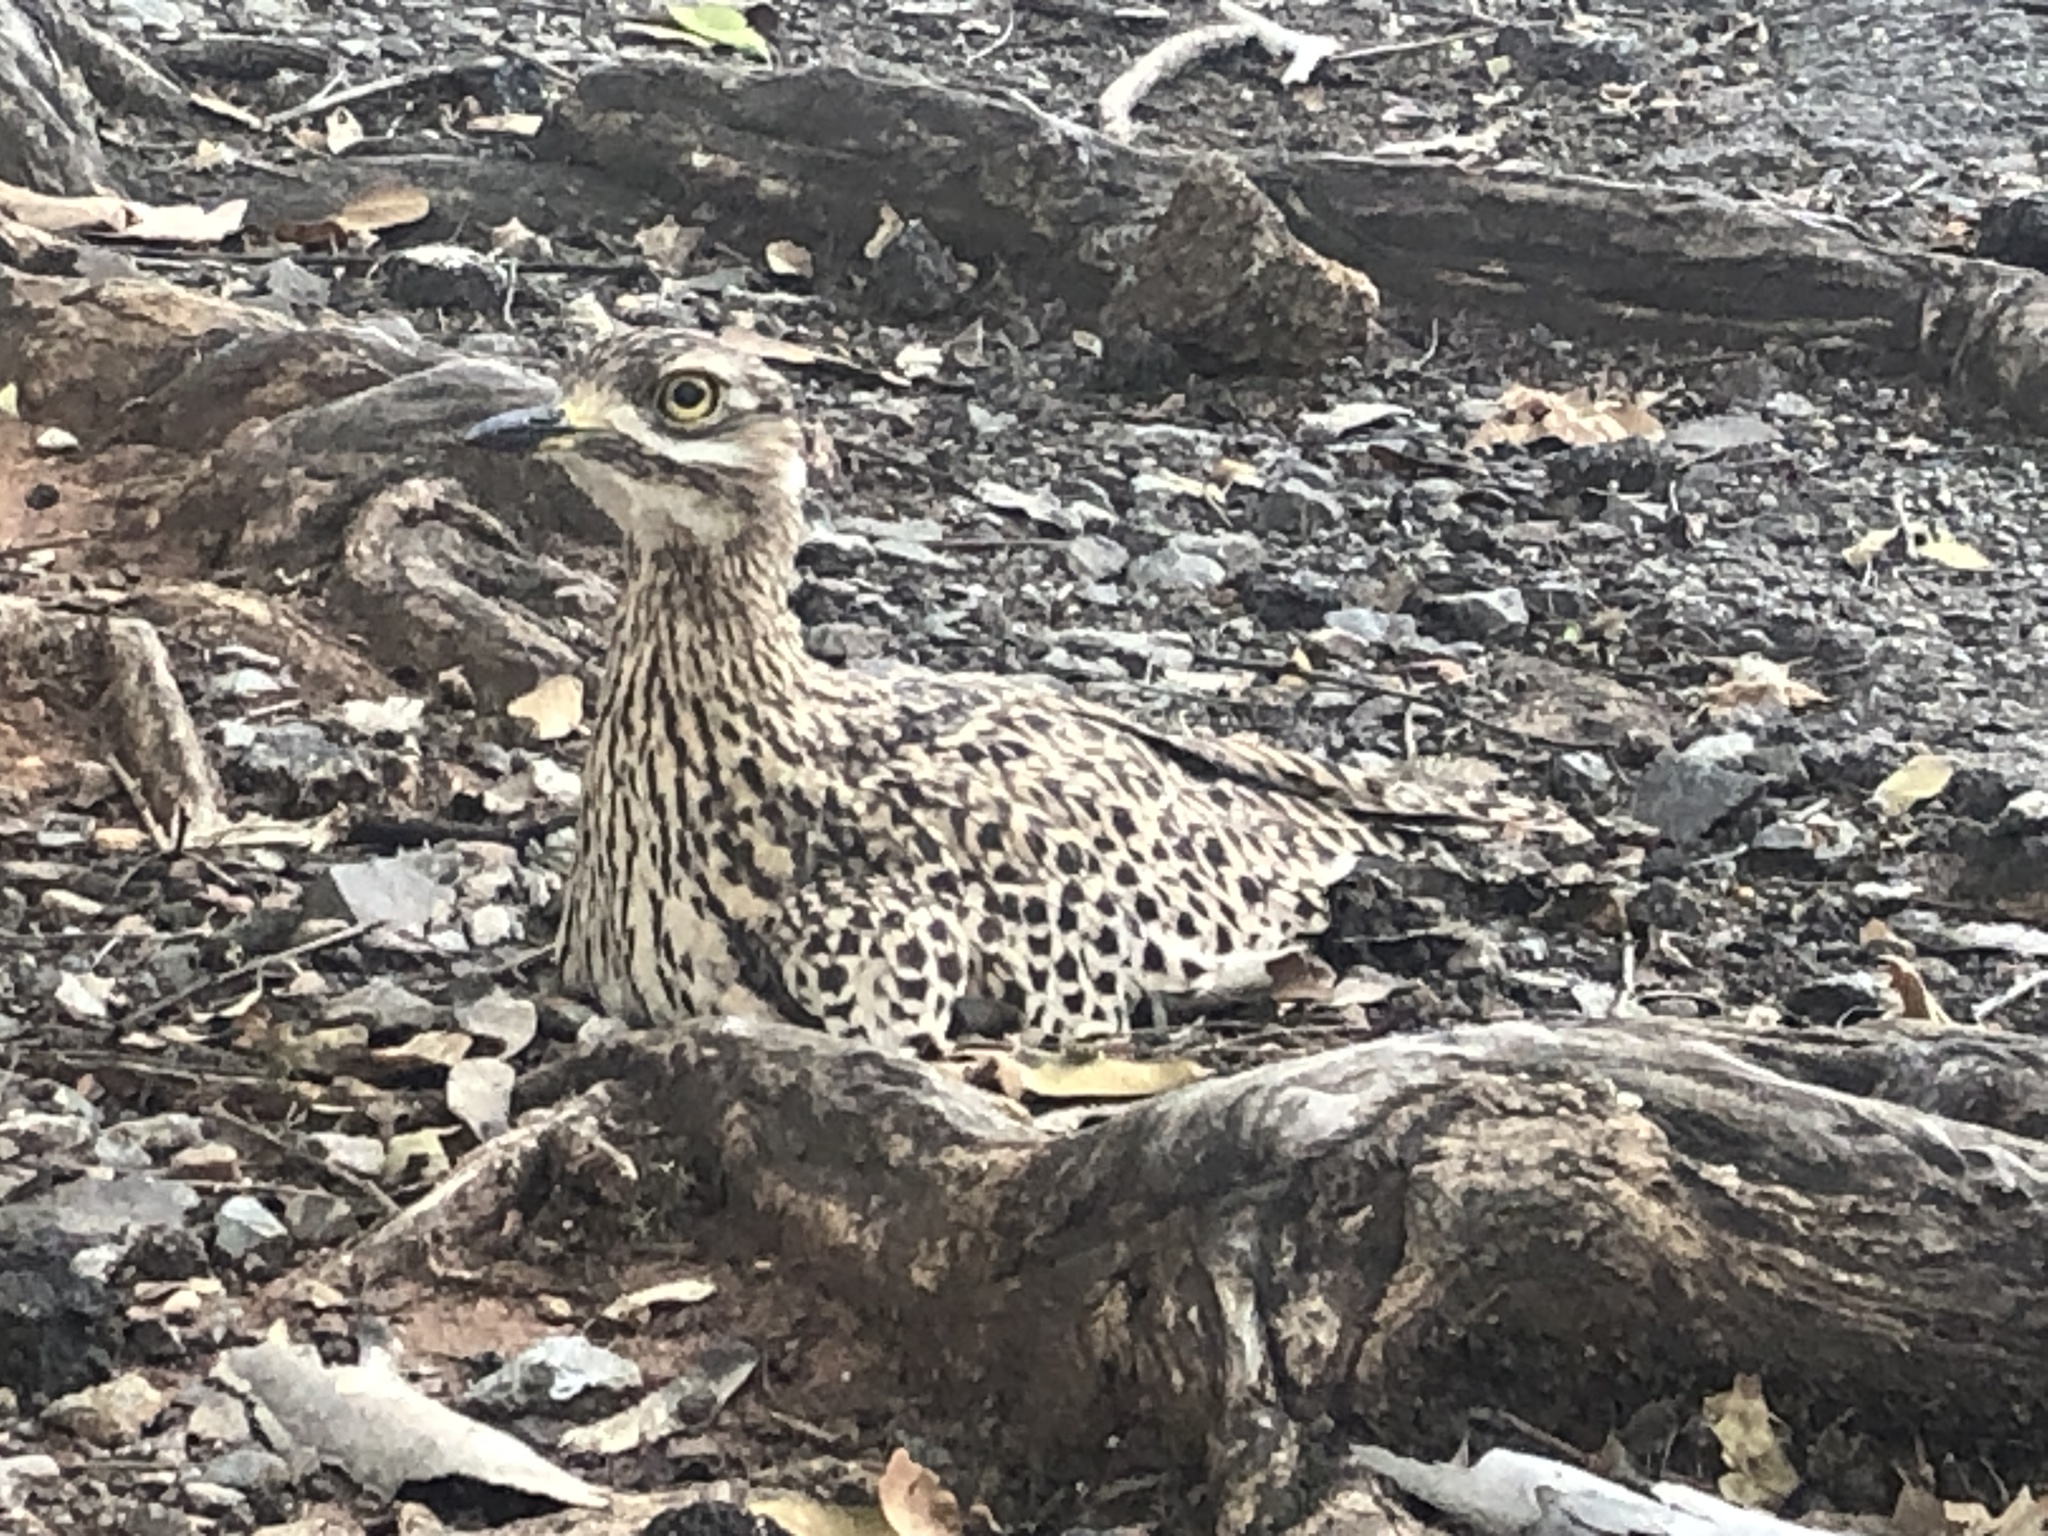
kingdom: Animalia
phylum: Chordata
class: Aves
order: Charadriiformes
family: Burhinidae
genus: Burhinus
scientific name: Burhinus capensis
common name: Spotted thick-knee
